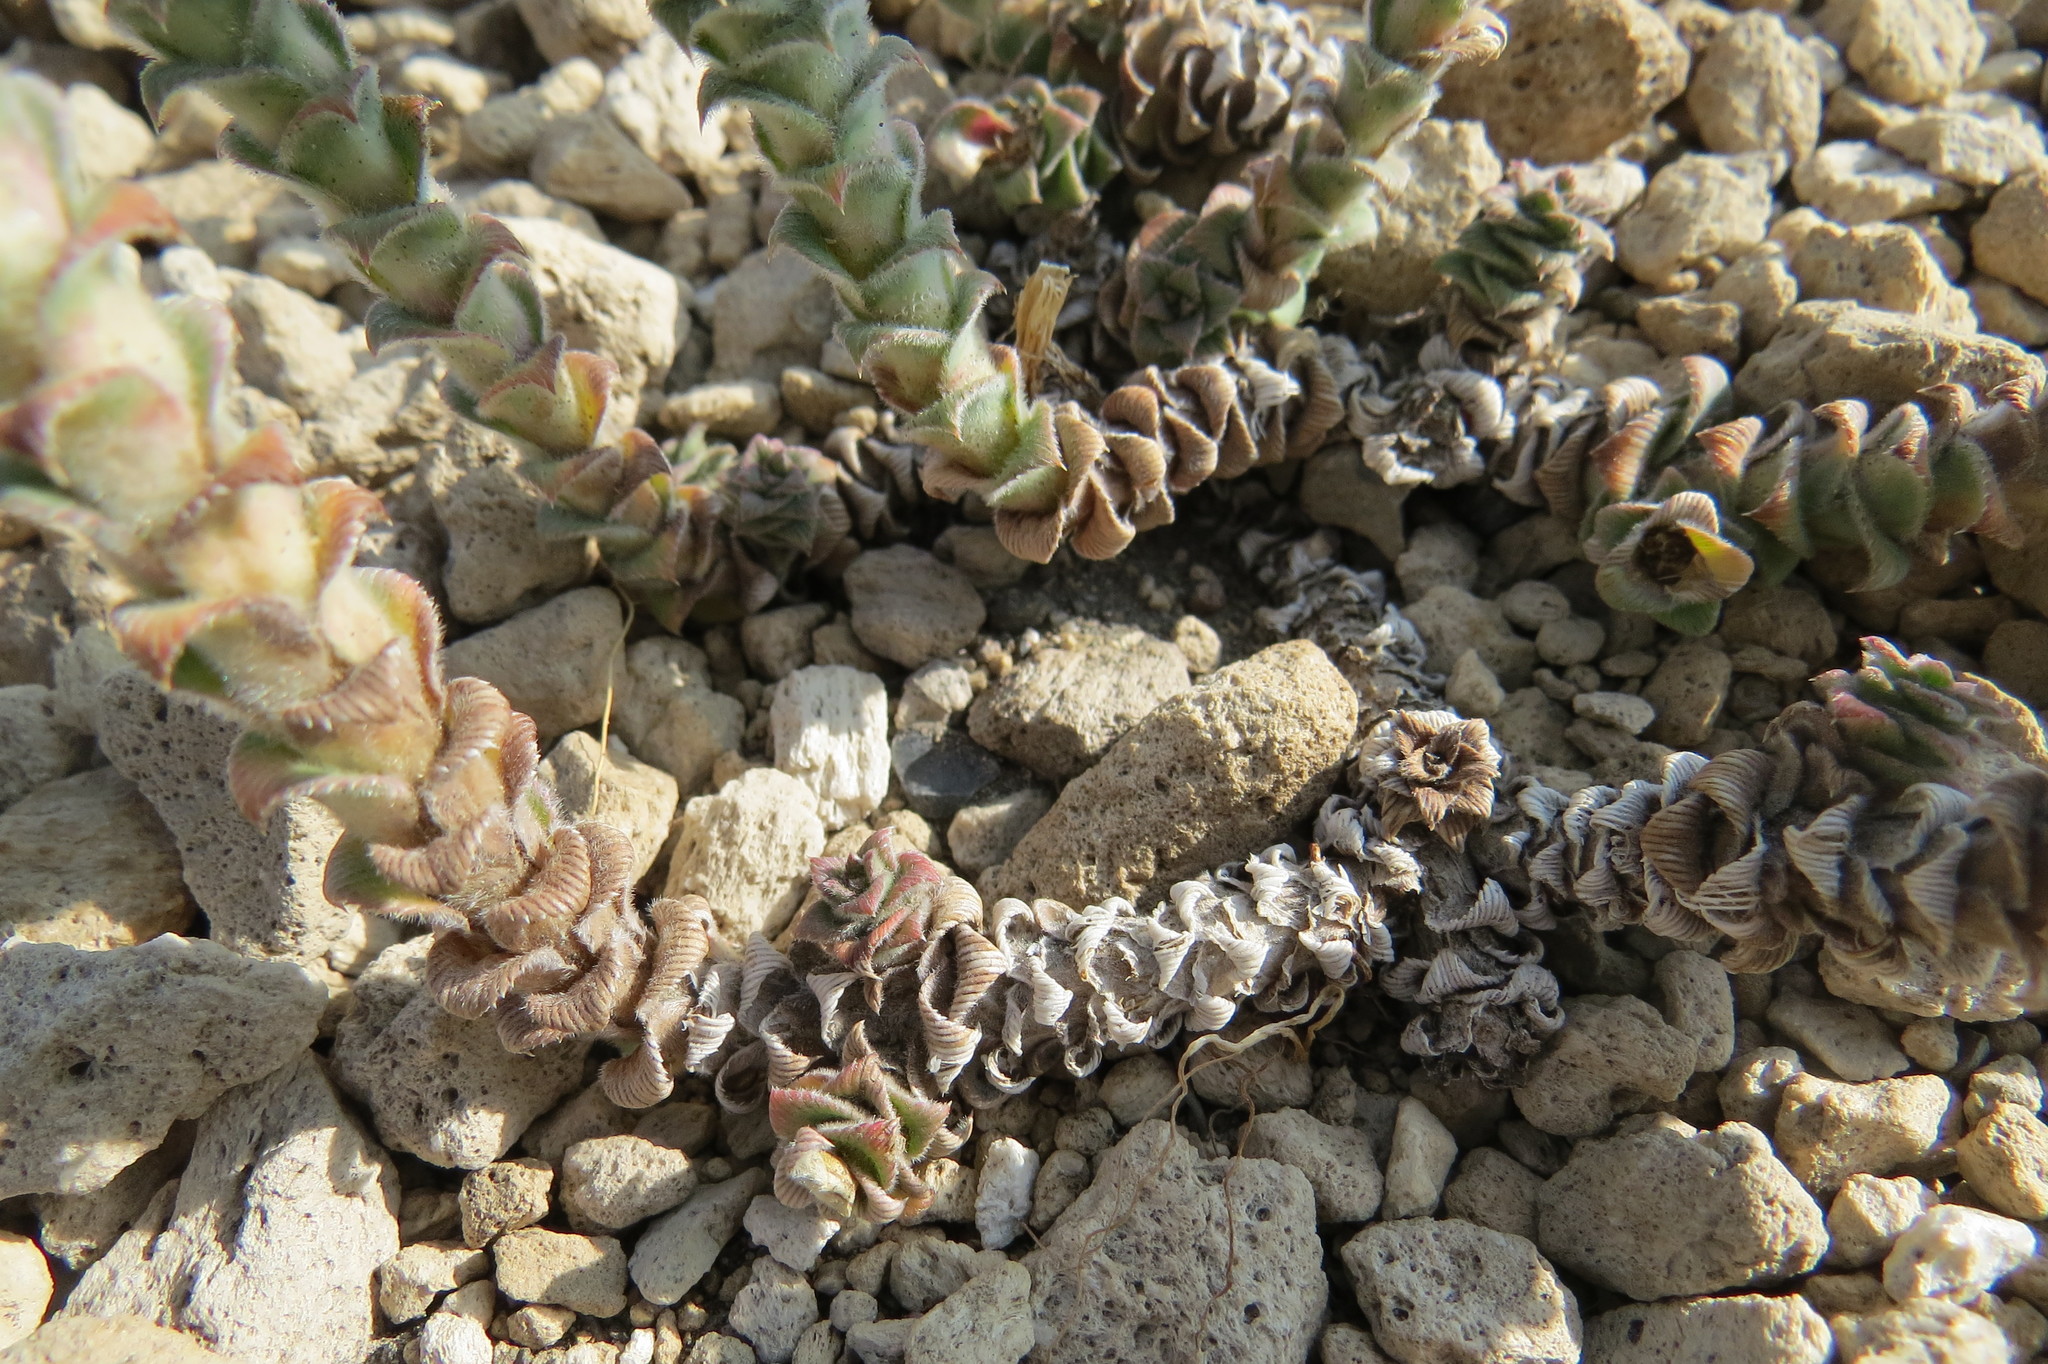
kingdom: Plantae
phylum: Tracheophyta
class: Magnoliopsida
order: Asterales
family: Asteraceae
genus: Nassauvia
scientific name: Nassauvia revoluta
